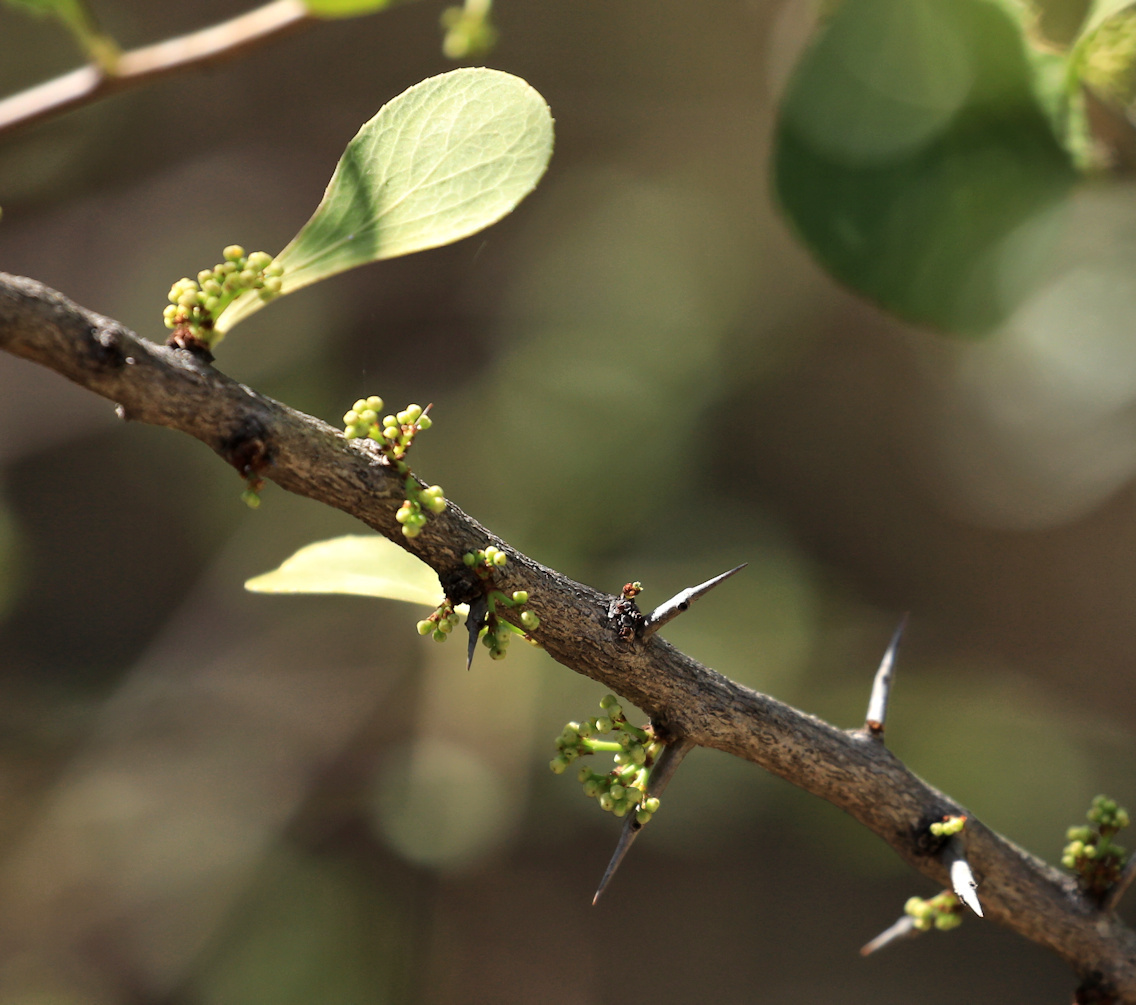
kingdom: Plantae
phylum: Tracheophyta
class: Magnoliopsida
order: Celastrales
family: Celastraceae
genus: Gymnosporia
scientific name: Gymnosporia glaucophylla
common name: Blue spike-thorn
